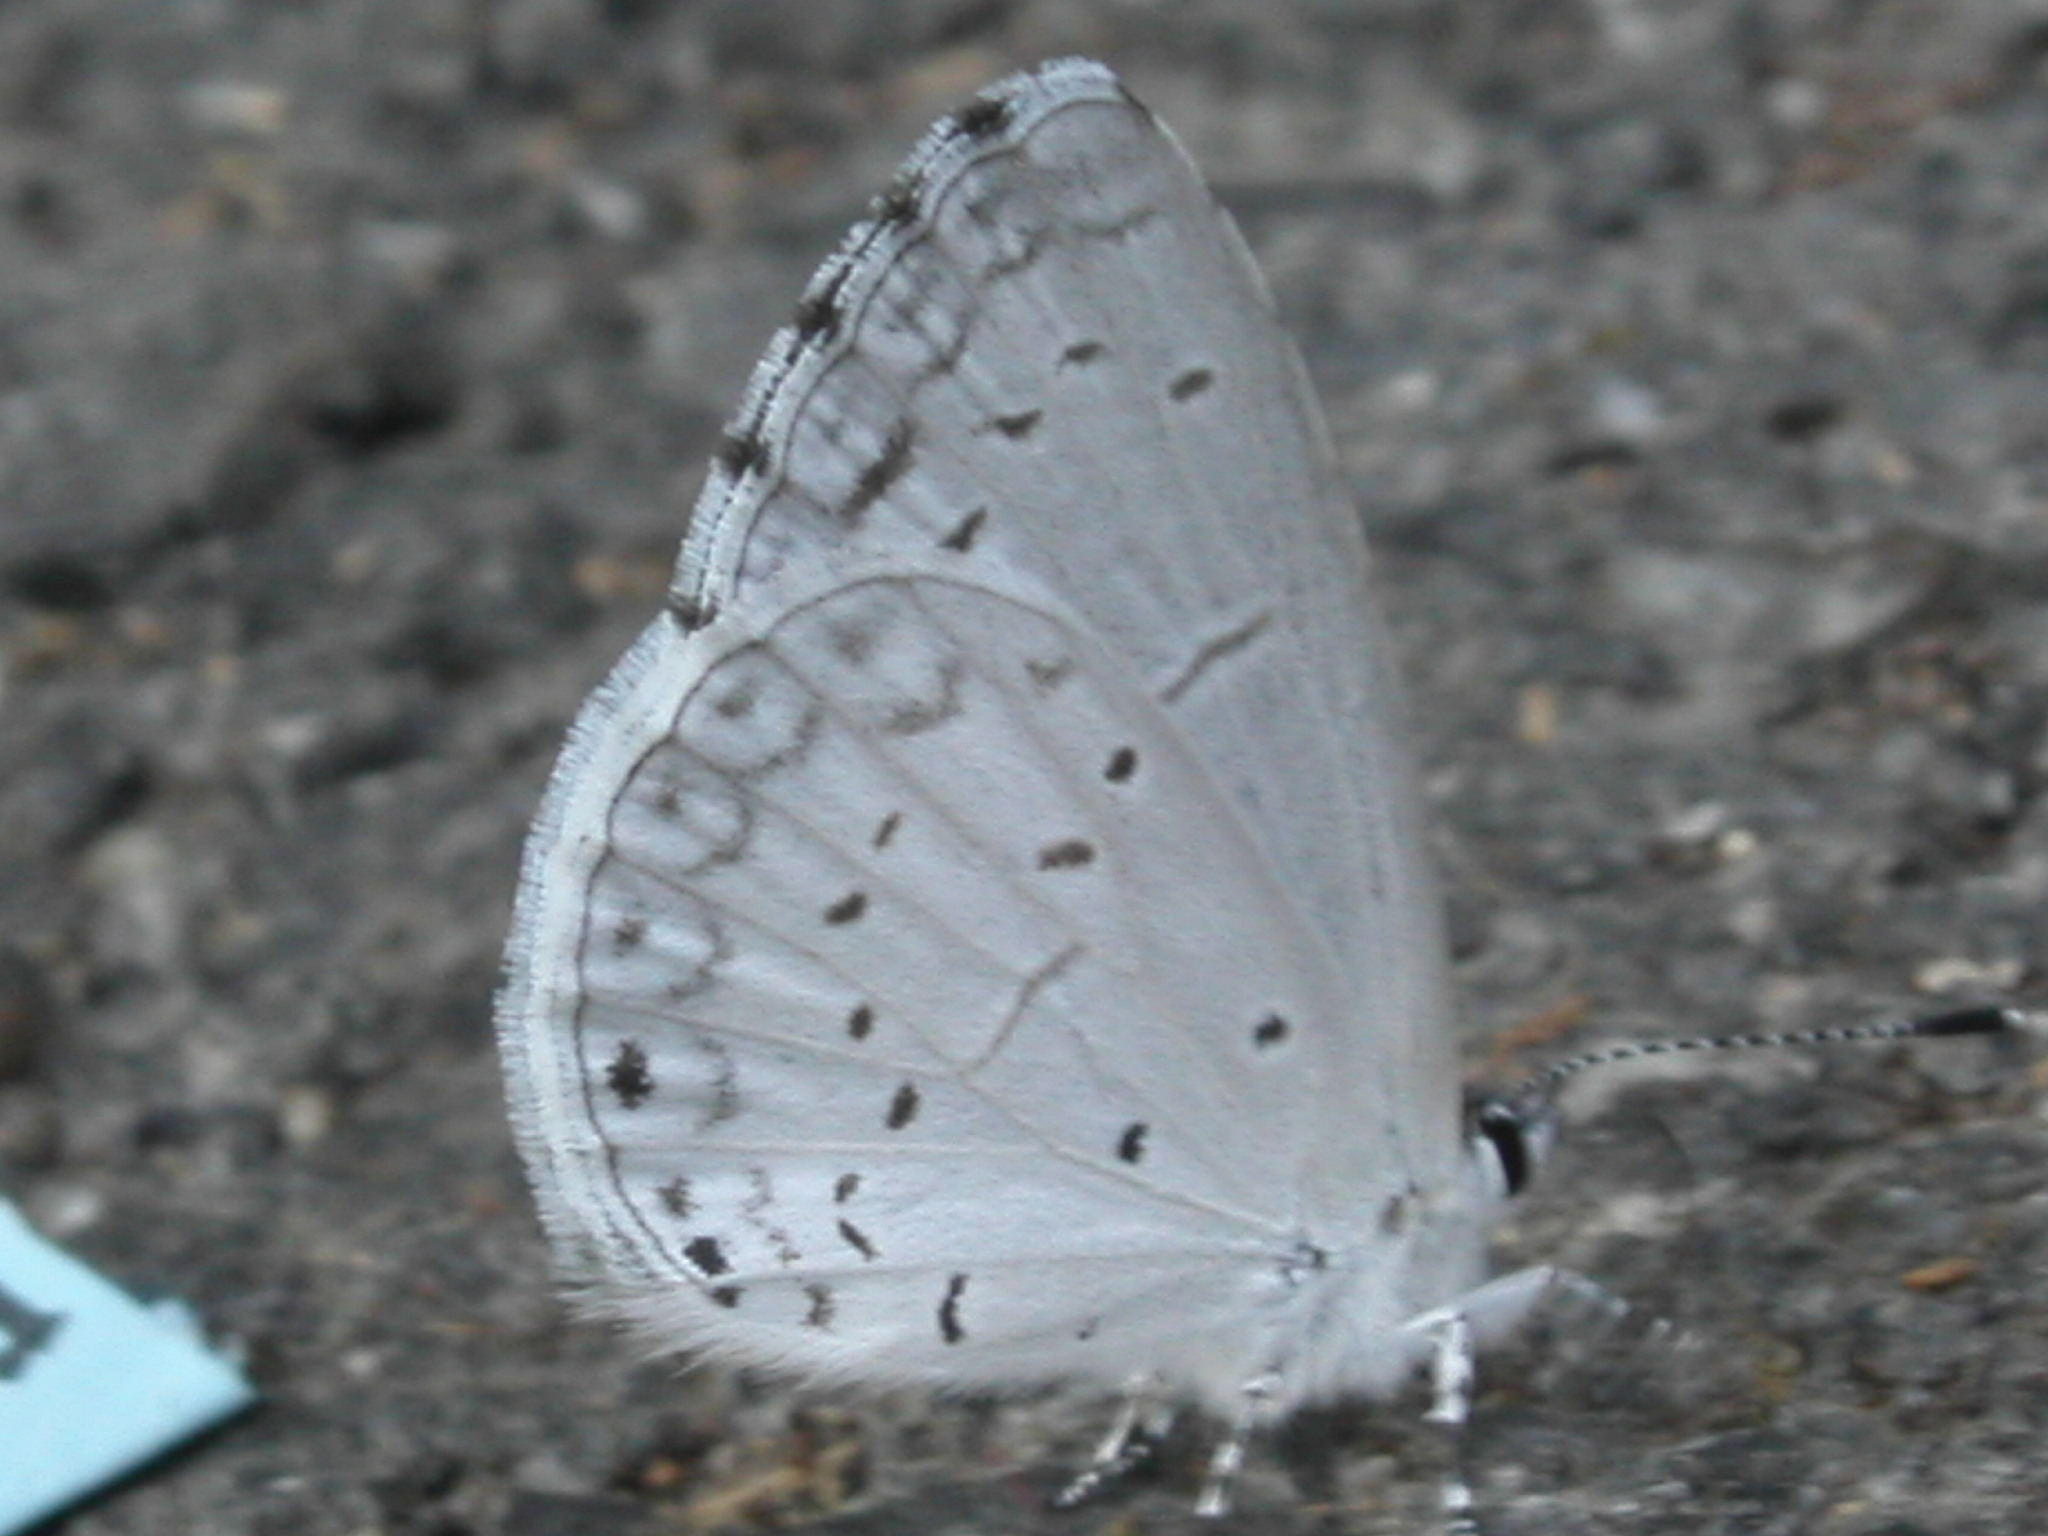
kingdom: Animalia
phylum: Arthropoda
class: Insecta
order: Lepidoptera
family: Lycaenidae
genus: Cyaniris
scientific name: Cyaniris neglecta
